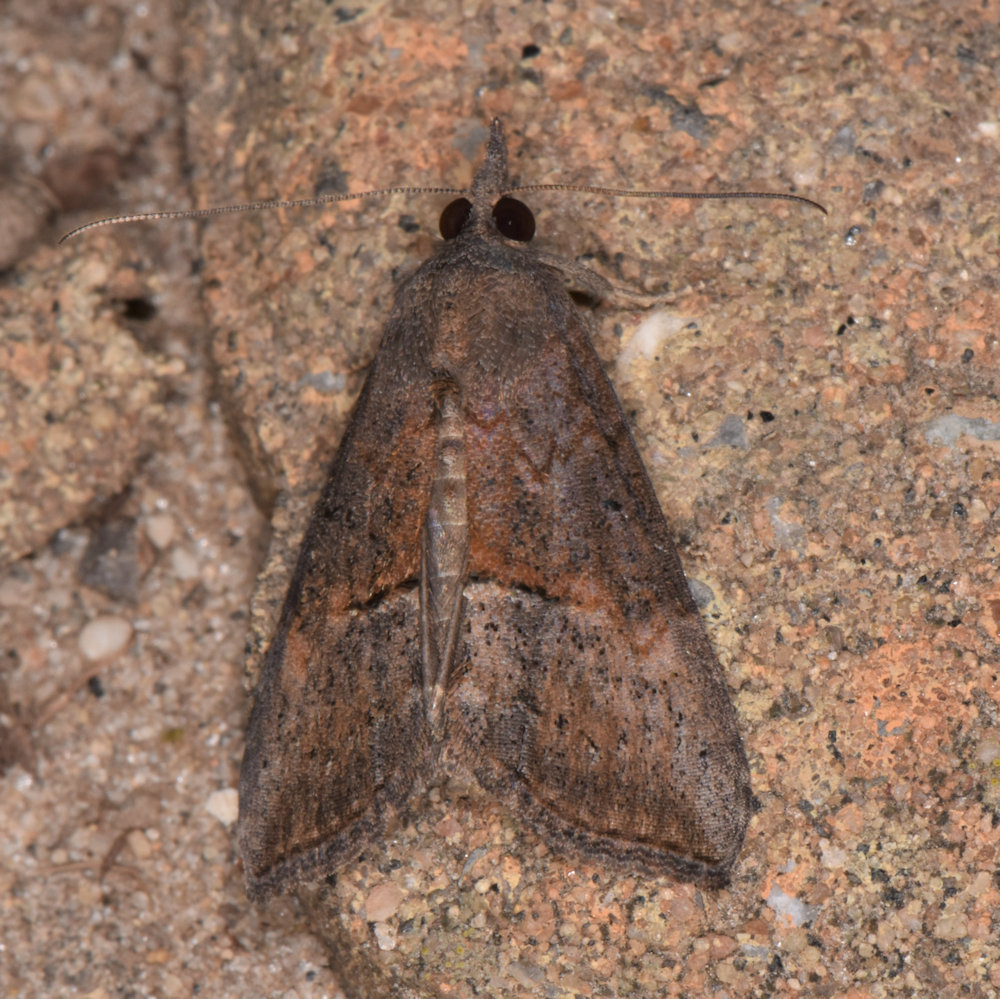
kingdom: Animalia
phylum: Arthropoda
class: Insecta
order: Lepidoptera
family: Erebidae
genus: Hypena
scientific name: Hypena scabra
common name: Green cloverworm
